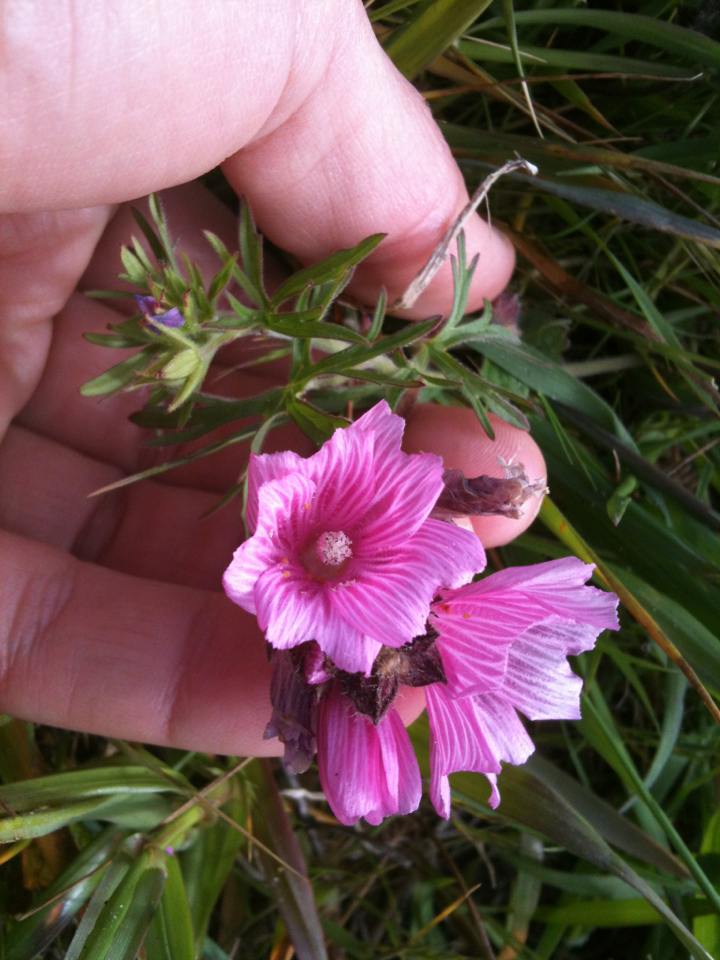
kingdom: Plantae
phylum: Tracheophyta
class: Magnoliopsida
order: Malvales
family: Malvaceae
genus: Sidalcea
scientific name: Sidalcea malviflora
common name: Greek mallow
